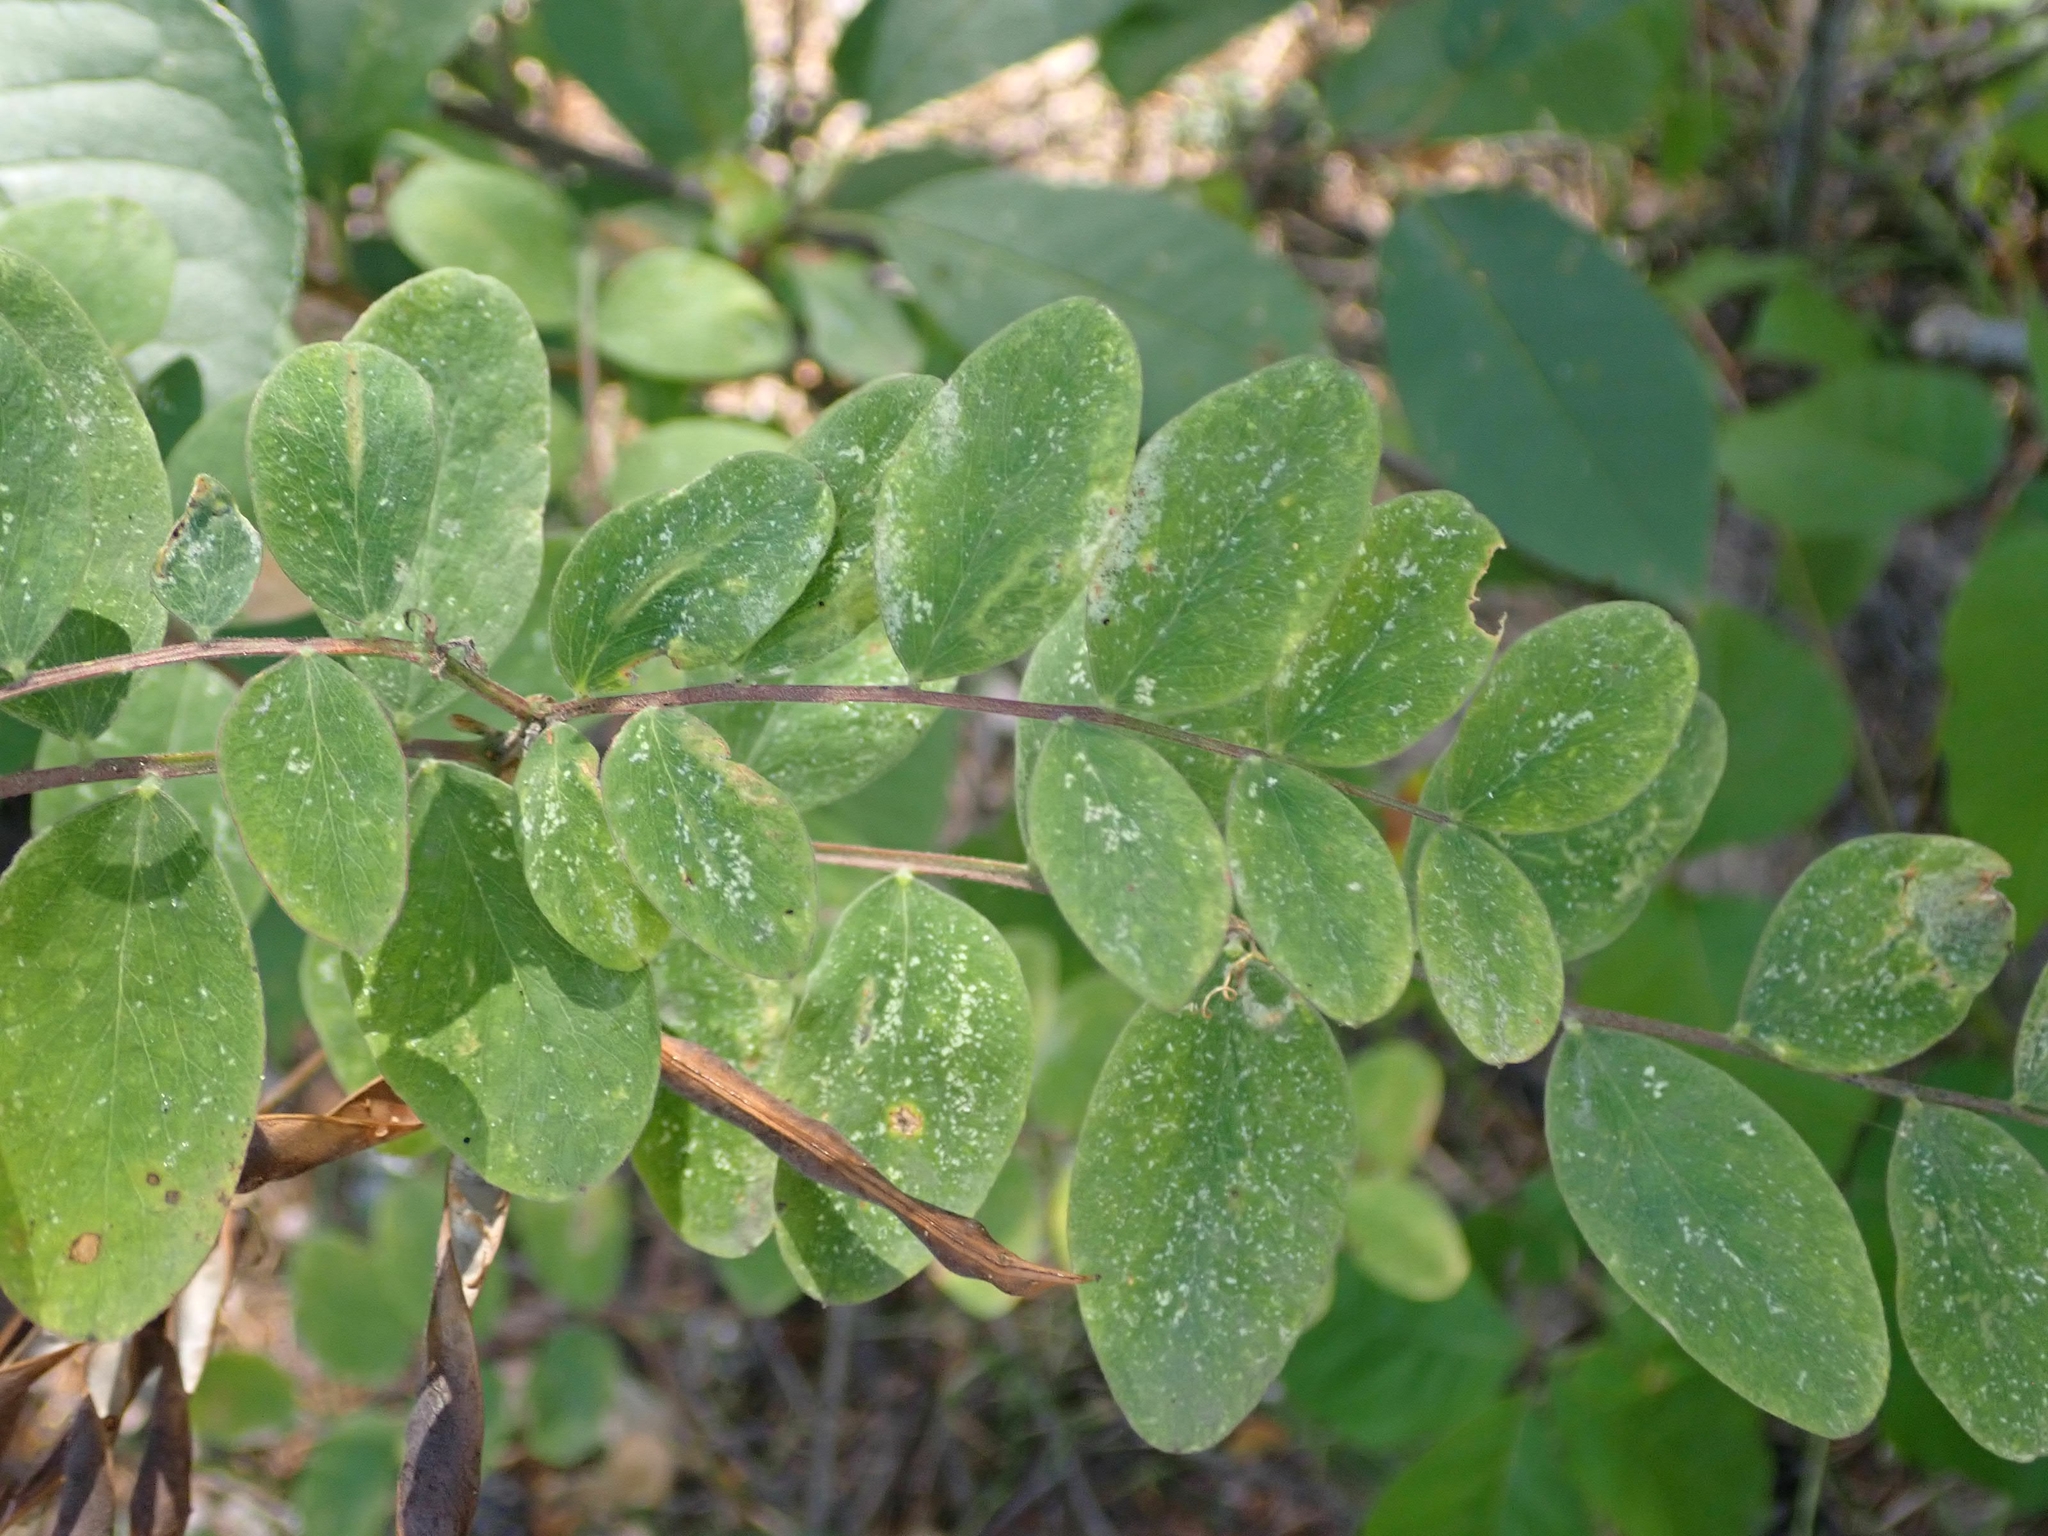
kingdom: Plantae
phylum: Tracheophyta
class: Magnoliopsida
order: Fabales
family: Fabaceae
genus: Lathyrus
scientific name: Lathyrus venosus
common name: Forest-pea
